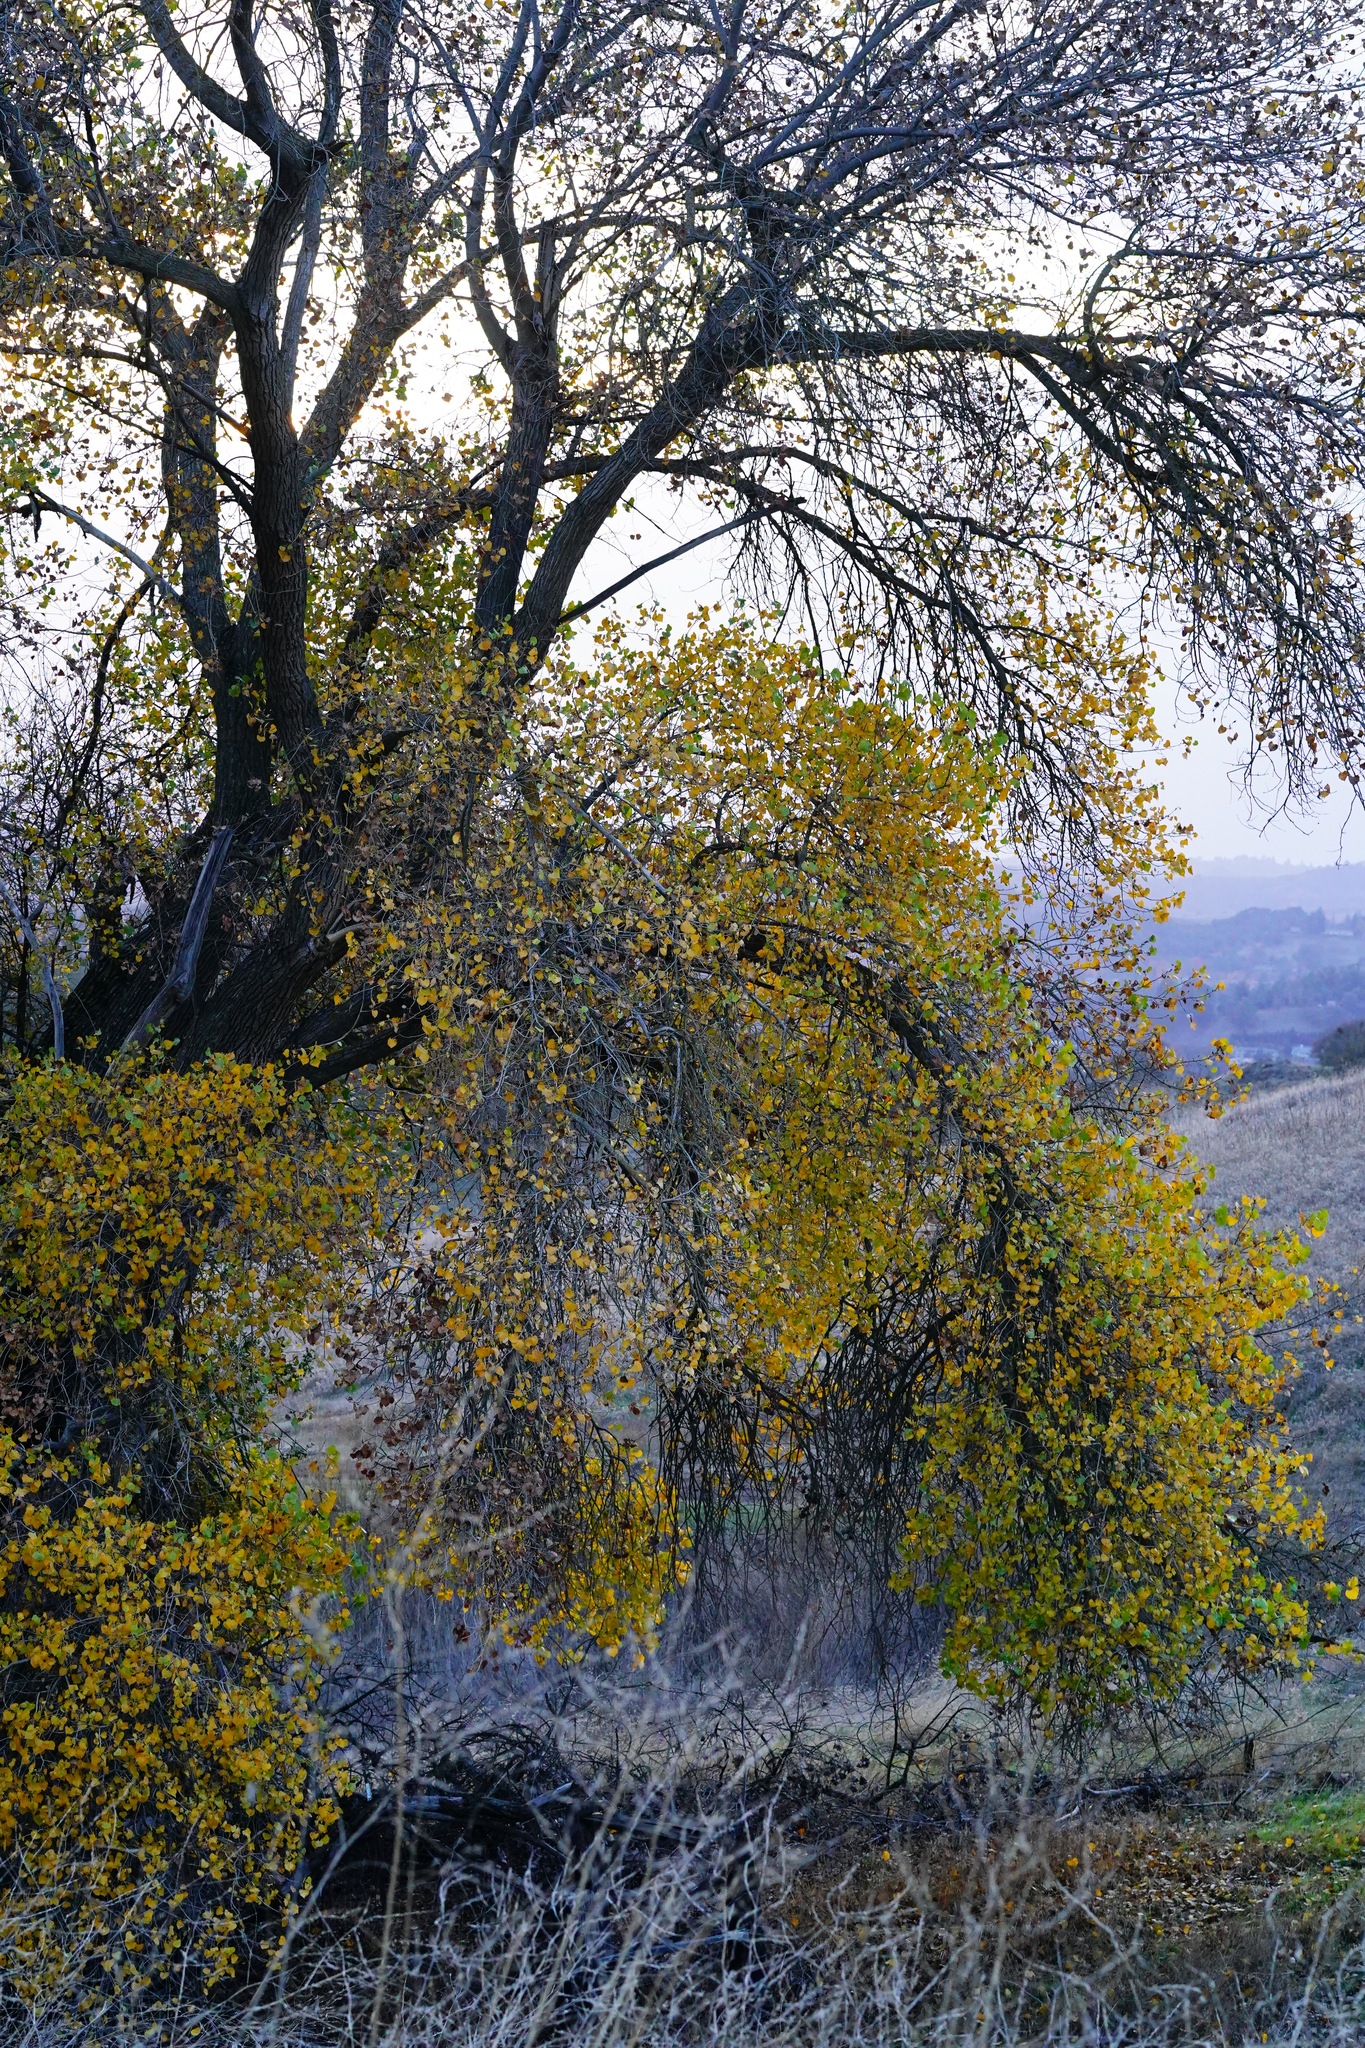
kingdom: Plantae
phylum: Tracheophyta
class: Magnoliopsida
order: Malpighiales
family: Salicaceae
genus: Populus
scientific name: Populus fremontii
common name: Fremont's cottonwood
